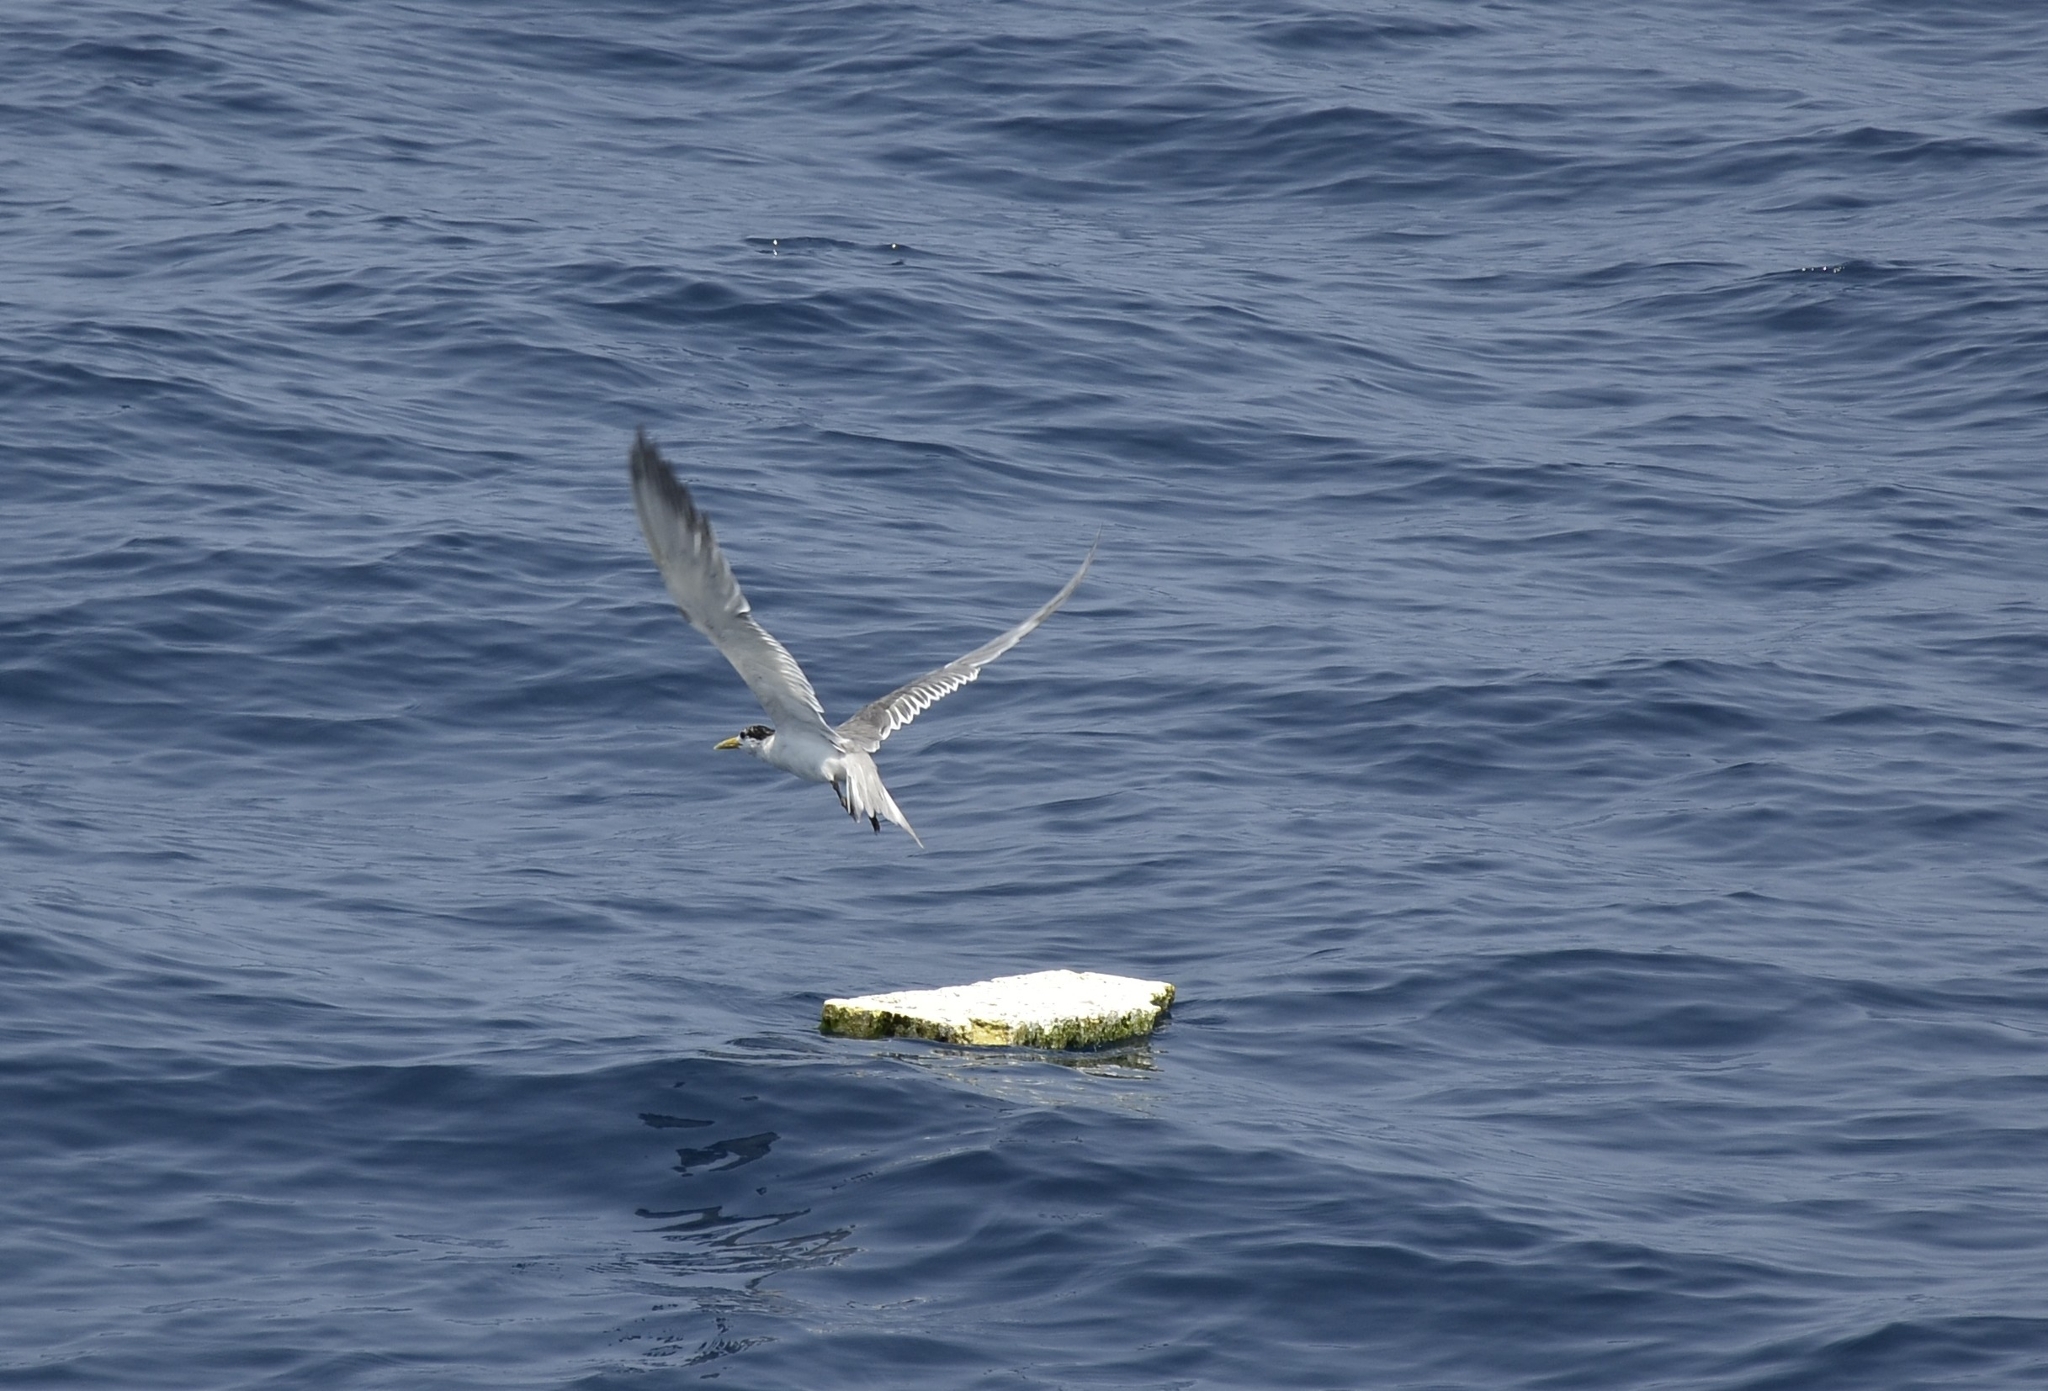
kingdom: Animalia
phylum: Chordata
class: Aves
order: Charadriiformes
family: Laridae
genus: Thalasseus
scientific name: Thalasseus bergii
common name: Greater crested tern
